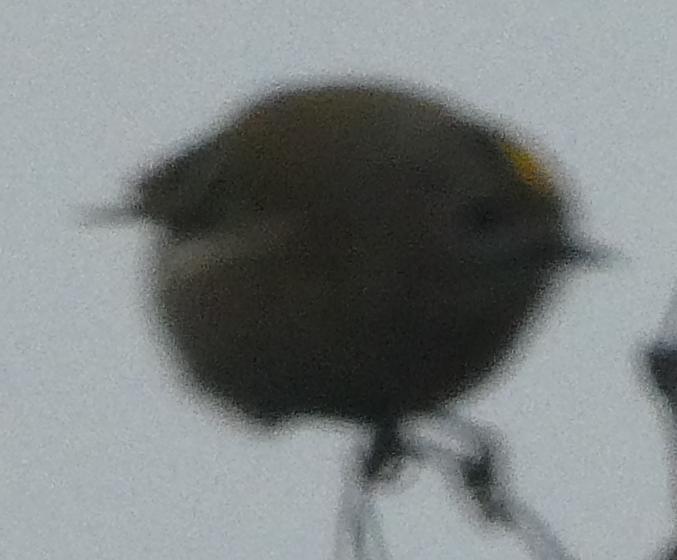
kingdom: Animalia
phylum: Chordata
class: Aves
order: Passeriformes
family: Regulidae
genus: Regulus
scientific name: Regulus regulus
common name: Goldcrest
